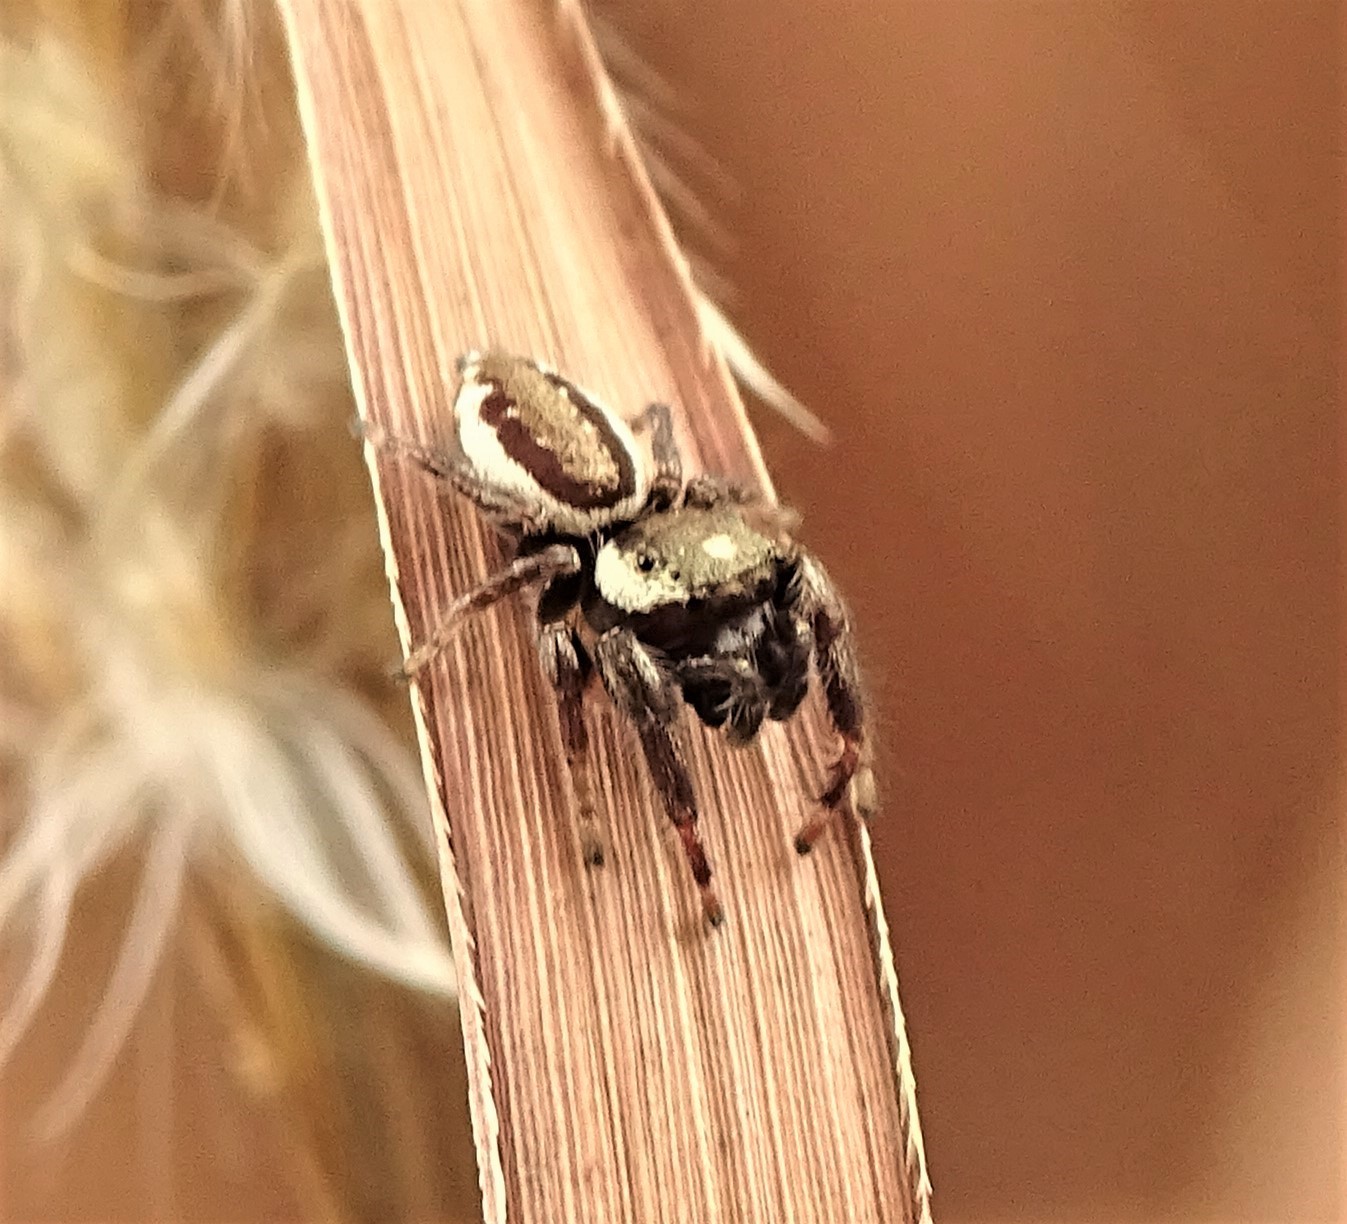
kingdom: Animalia
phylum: Arthropoda
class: Arachnida
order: Araneae
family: Salticidae
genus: Eris
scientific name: Eris militaris
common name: Bronze jumper
